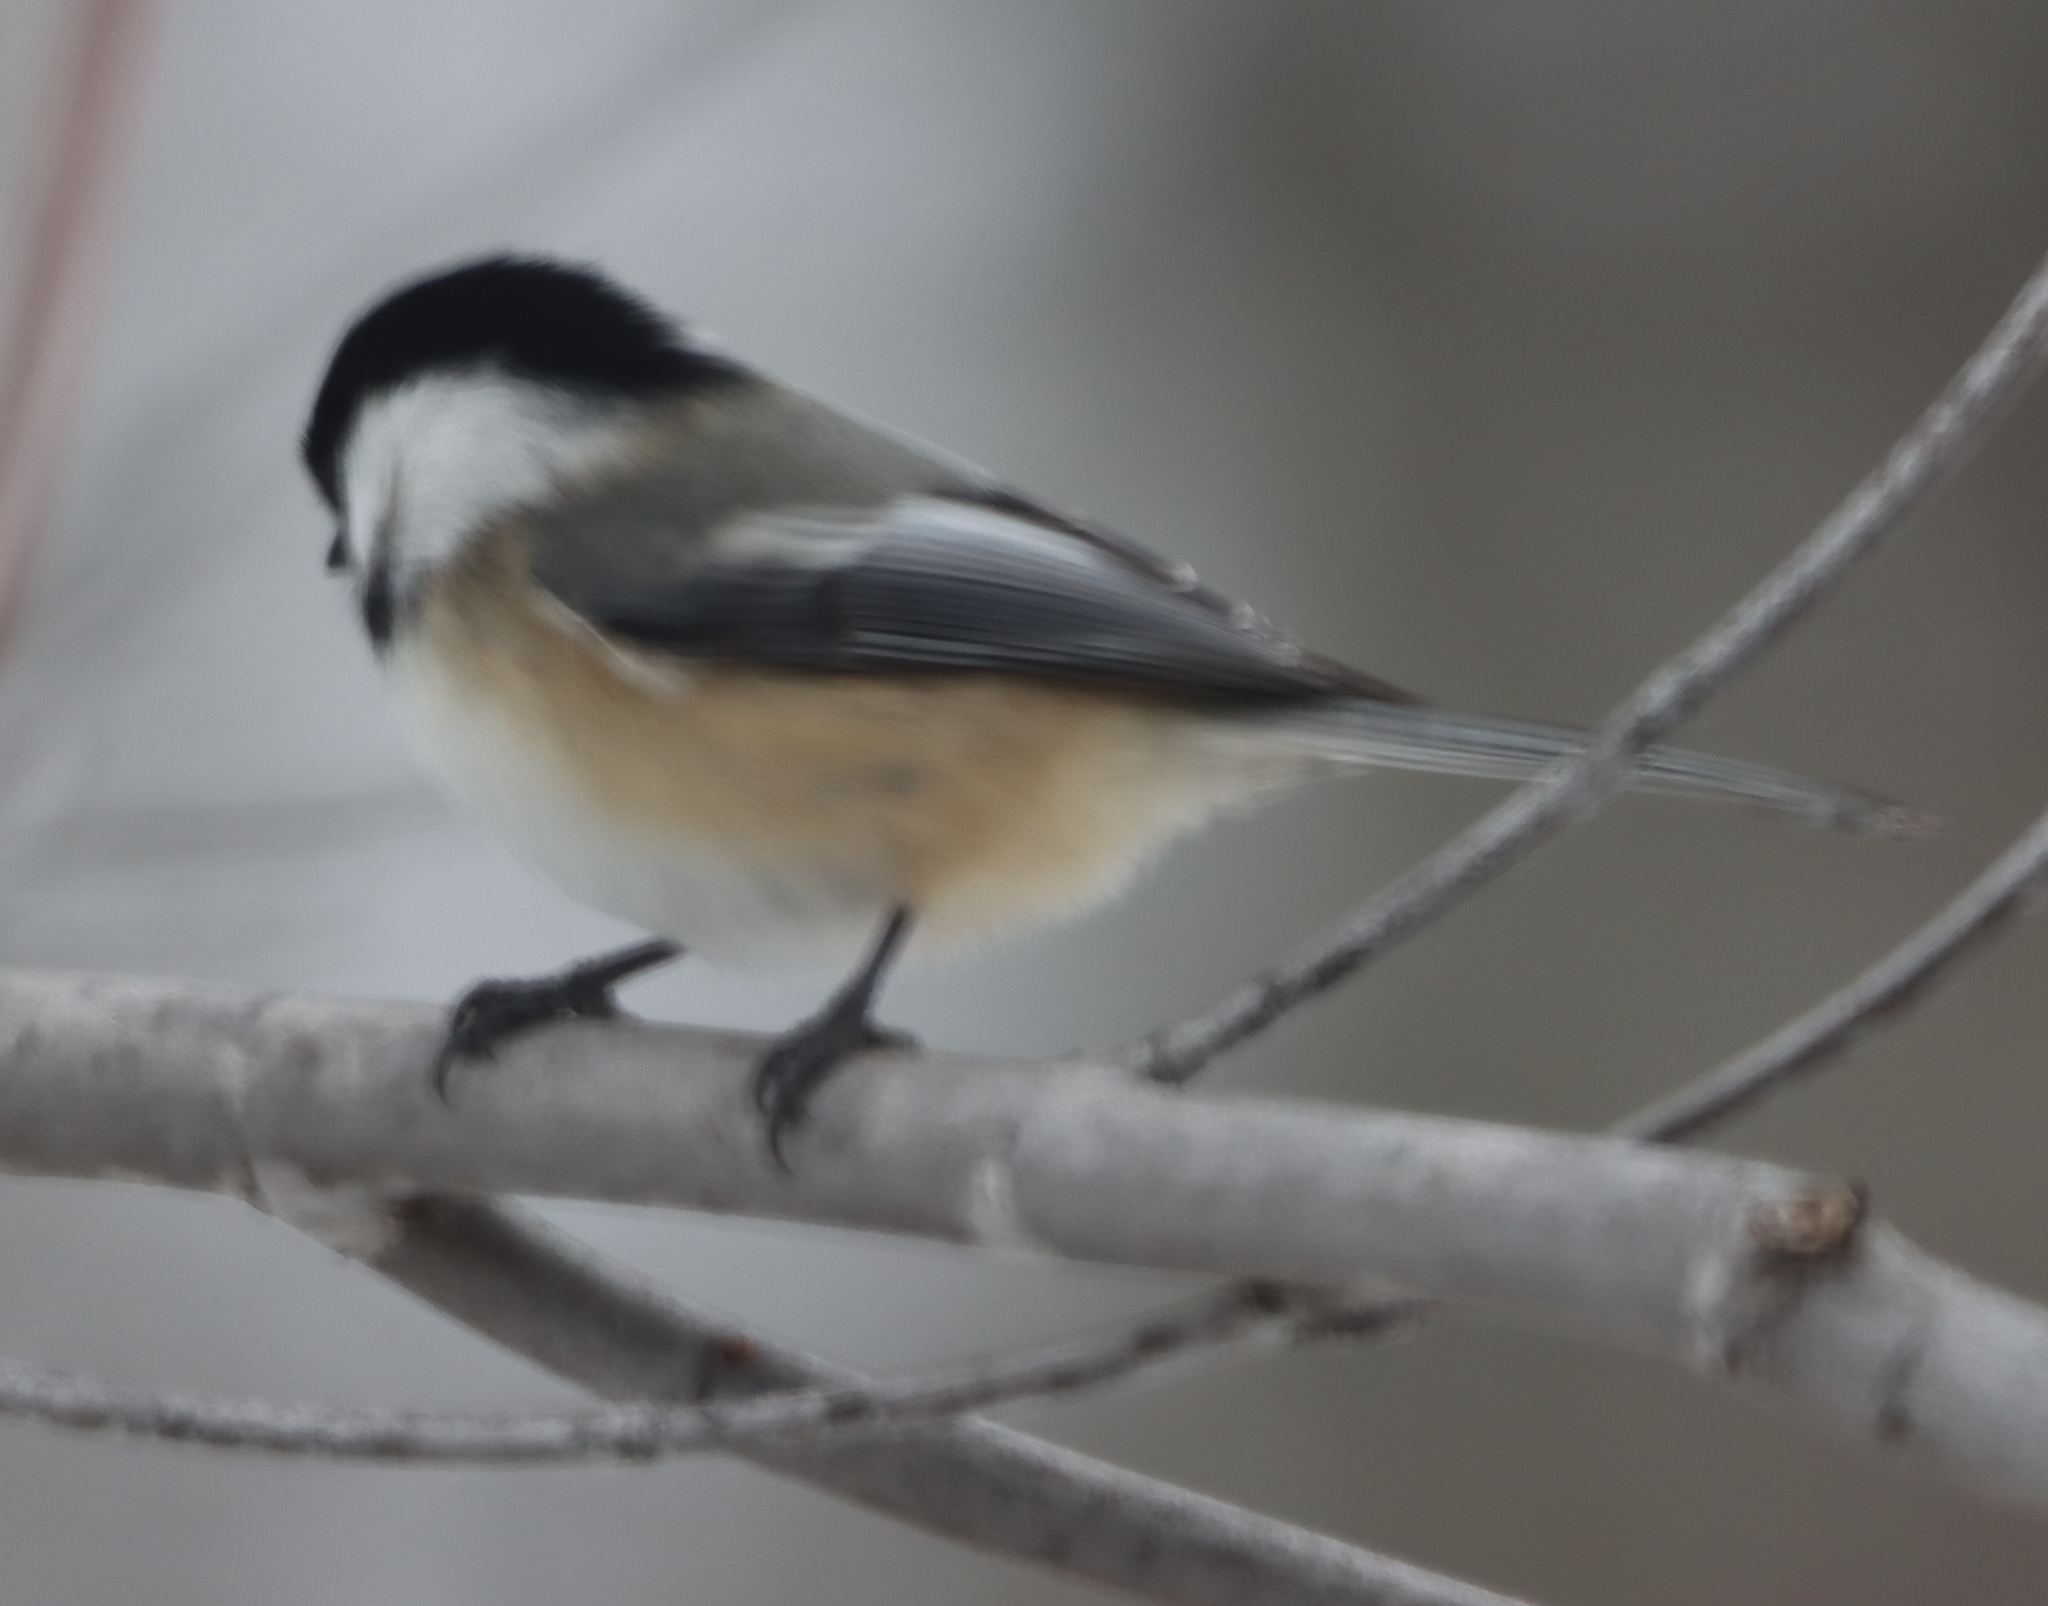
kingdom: Animalia
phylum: Chordata
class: Aves
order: Passeriformes
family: Paridae
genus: Poecile
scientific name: Poecile atricapillus
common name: Black-capped chickadee
